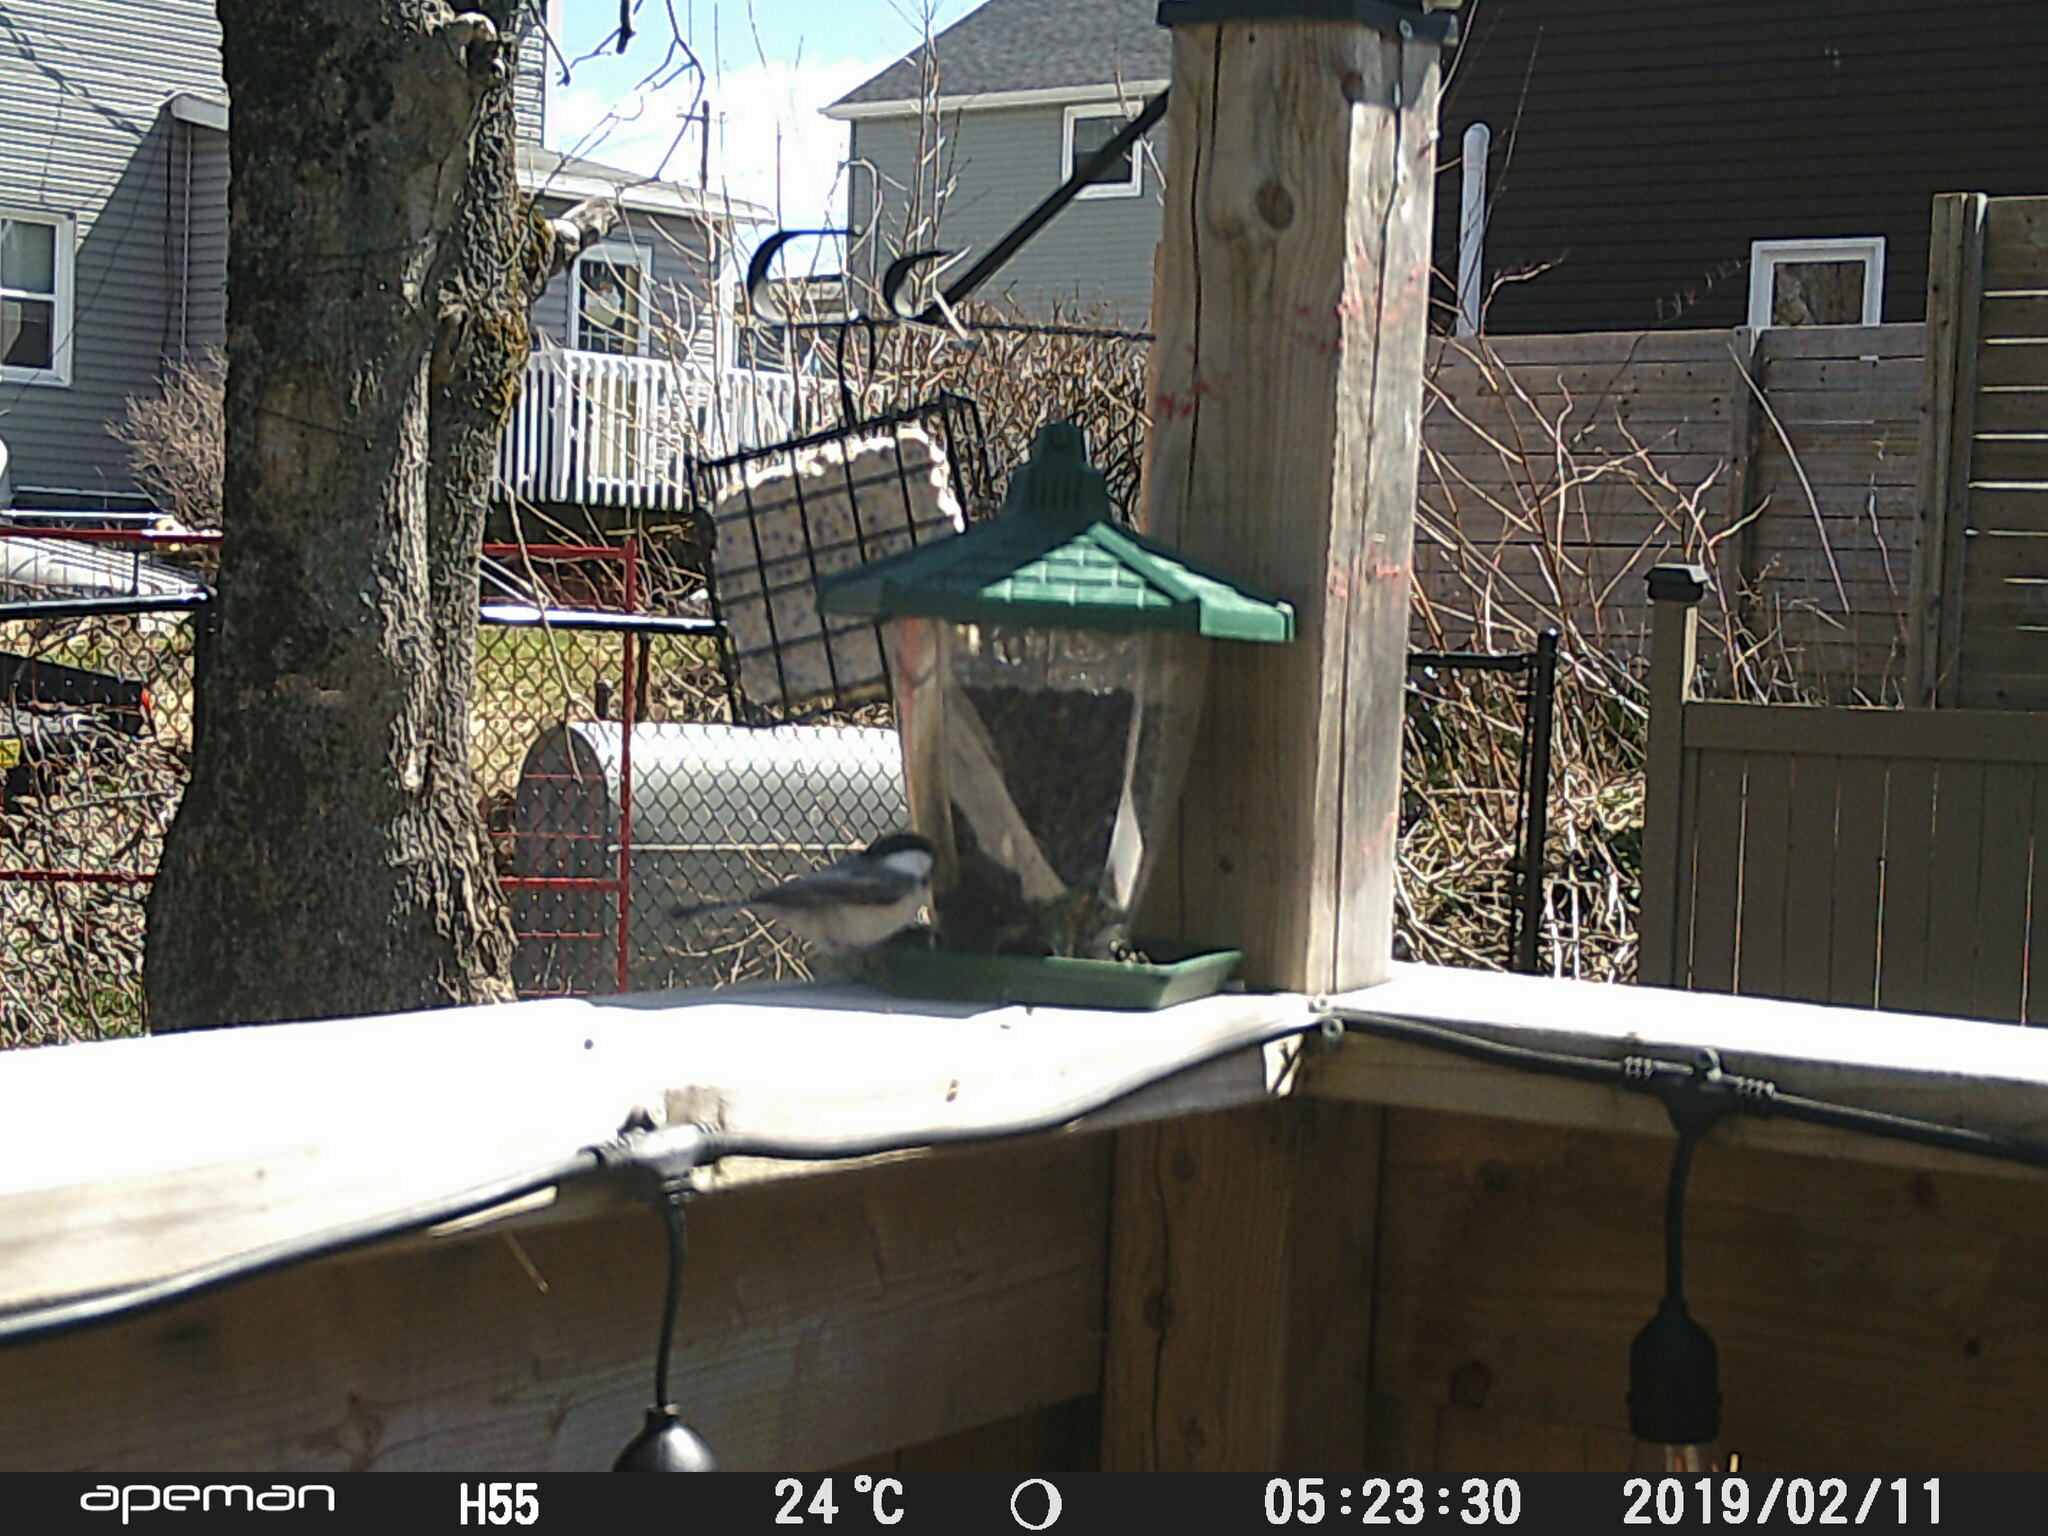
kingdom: Animalia
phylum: Chordata
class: Aves
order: Passeriformes
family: Paridae
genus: Poecile
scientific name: Poecile atricapillus
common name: Black-capped chickadee
